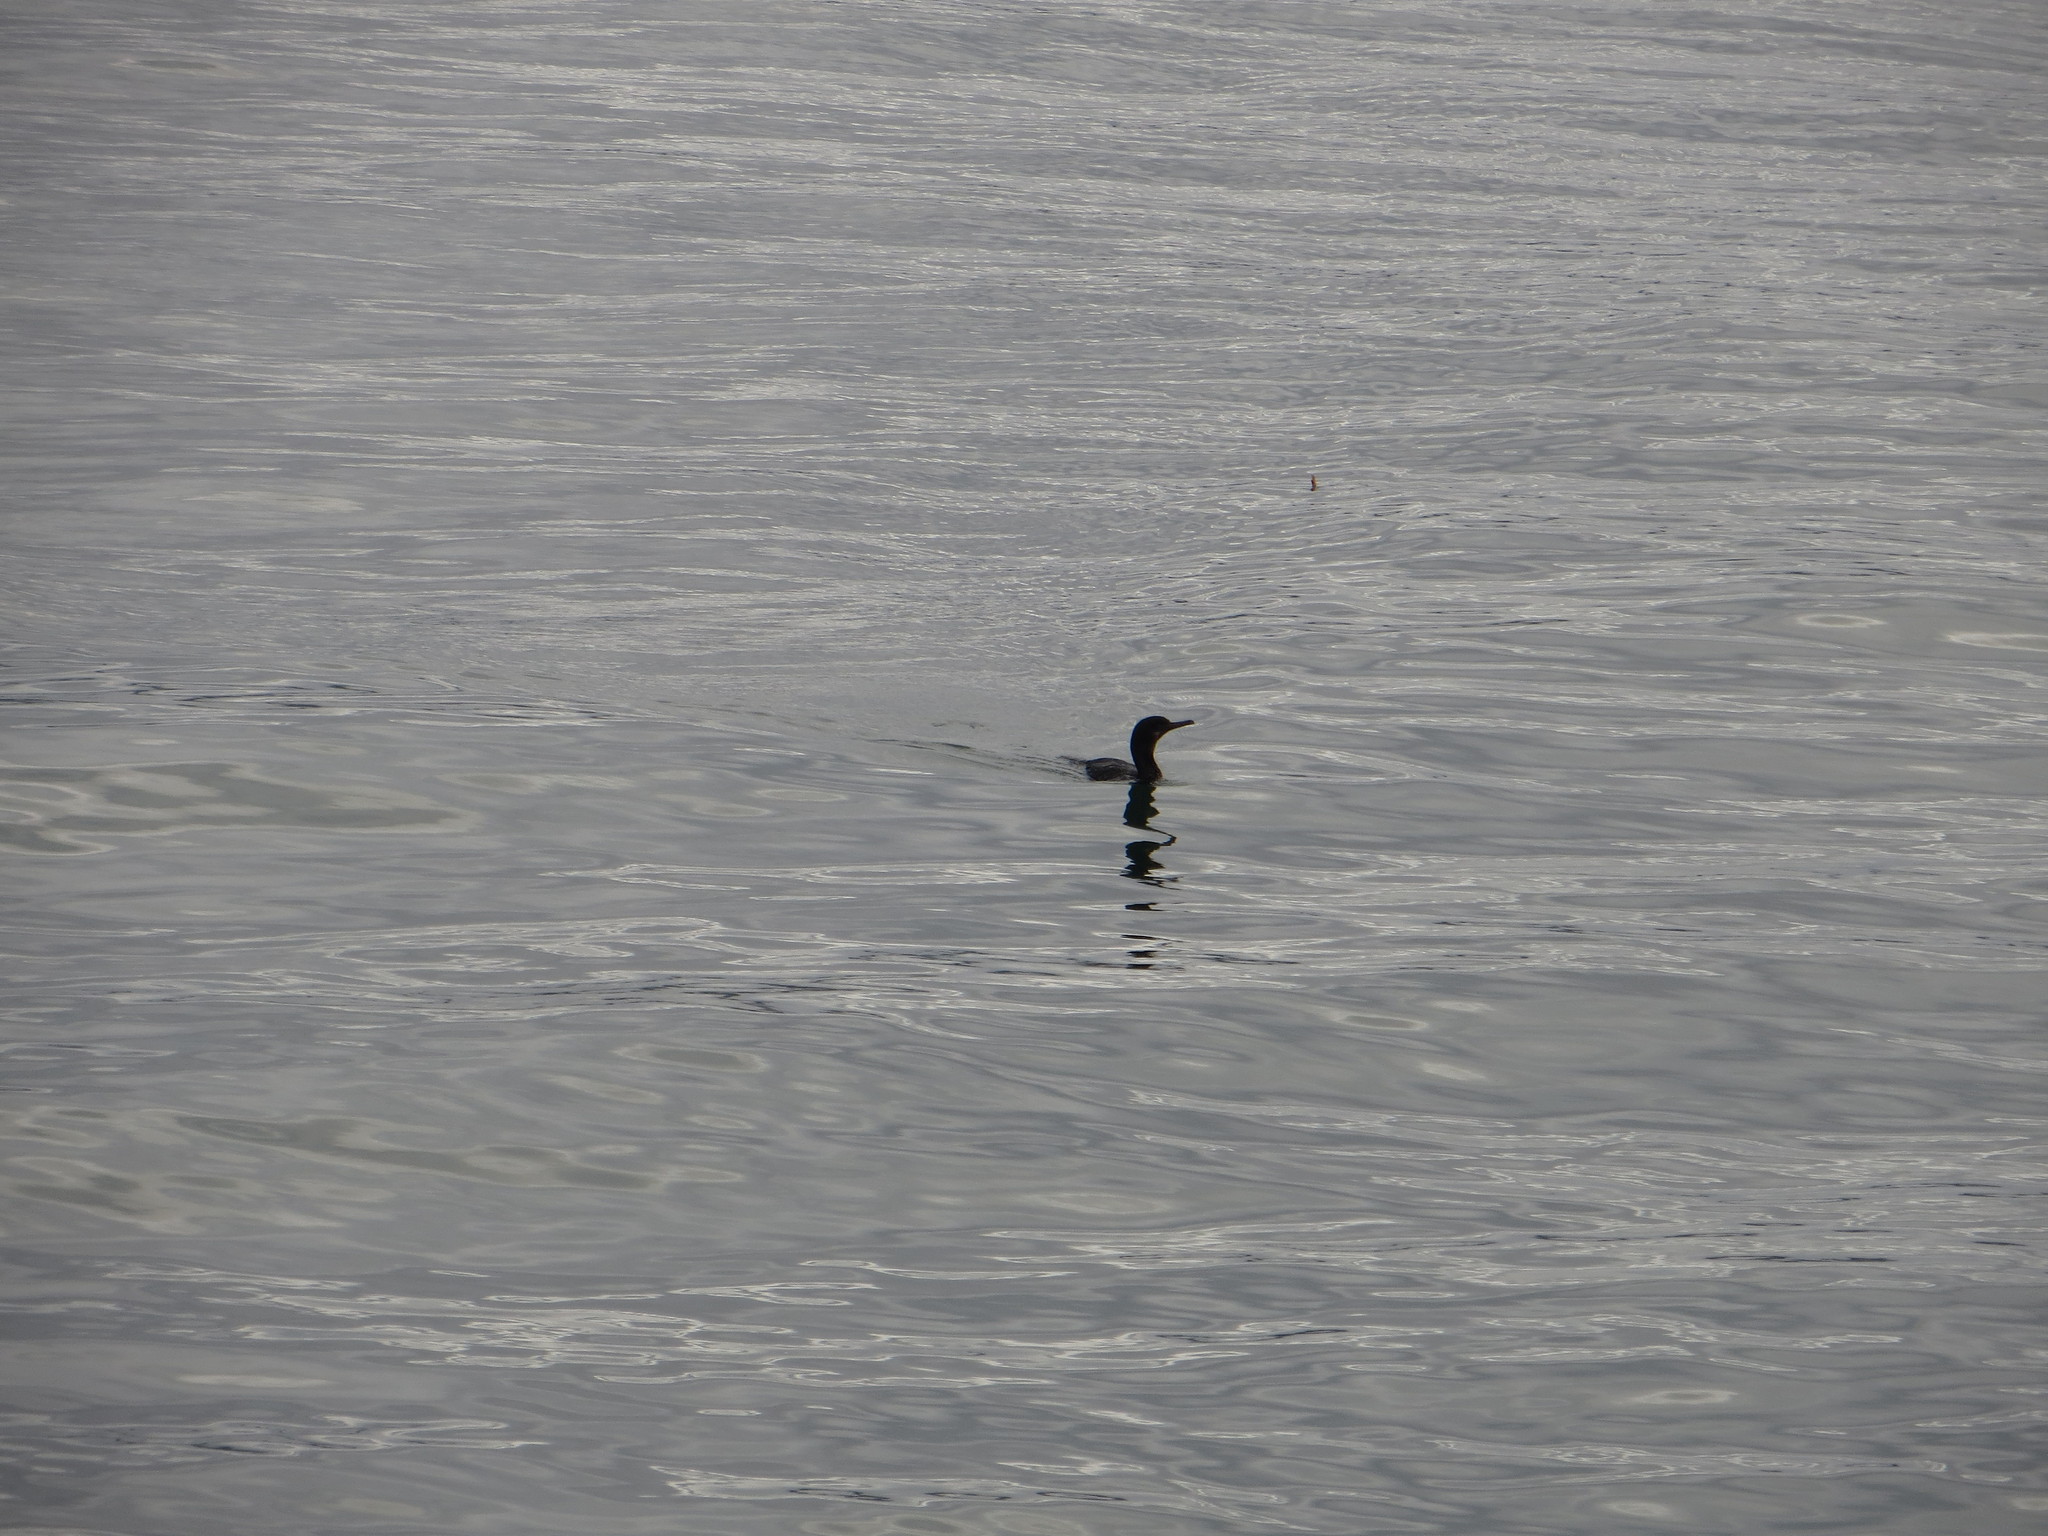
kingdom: Animalia
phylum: Chordata
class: Aves
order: Suliformes
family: Phalacrocoracidae
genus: Urile
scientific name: Urile penicillatus
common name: Brandt's cormorant
